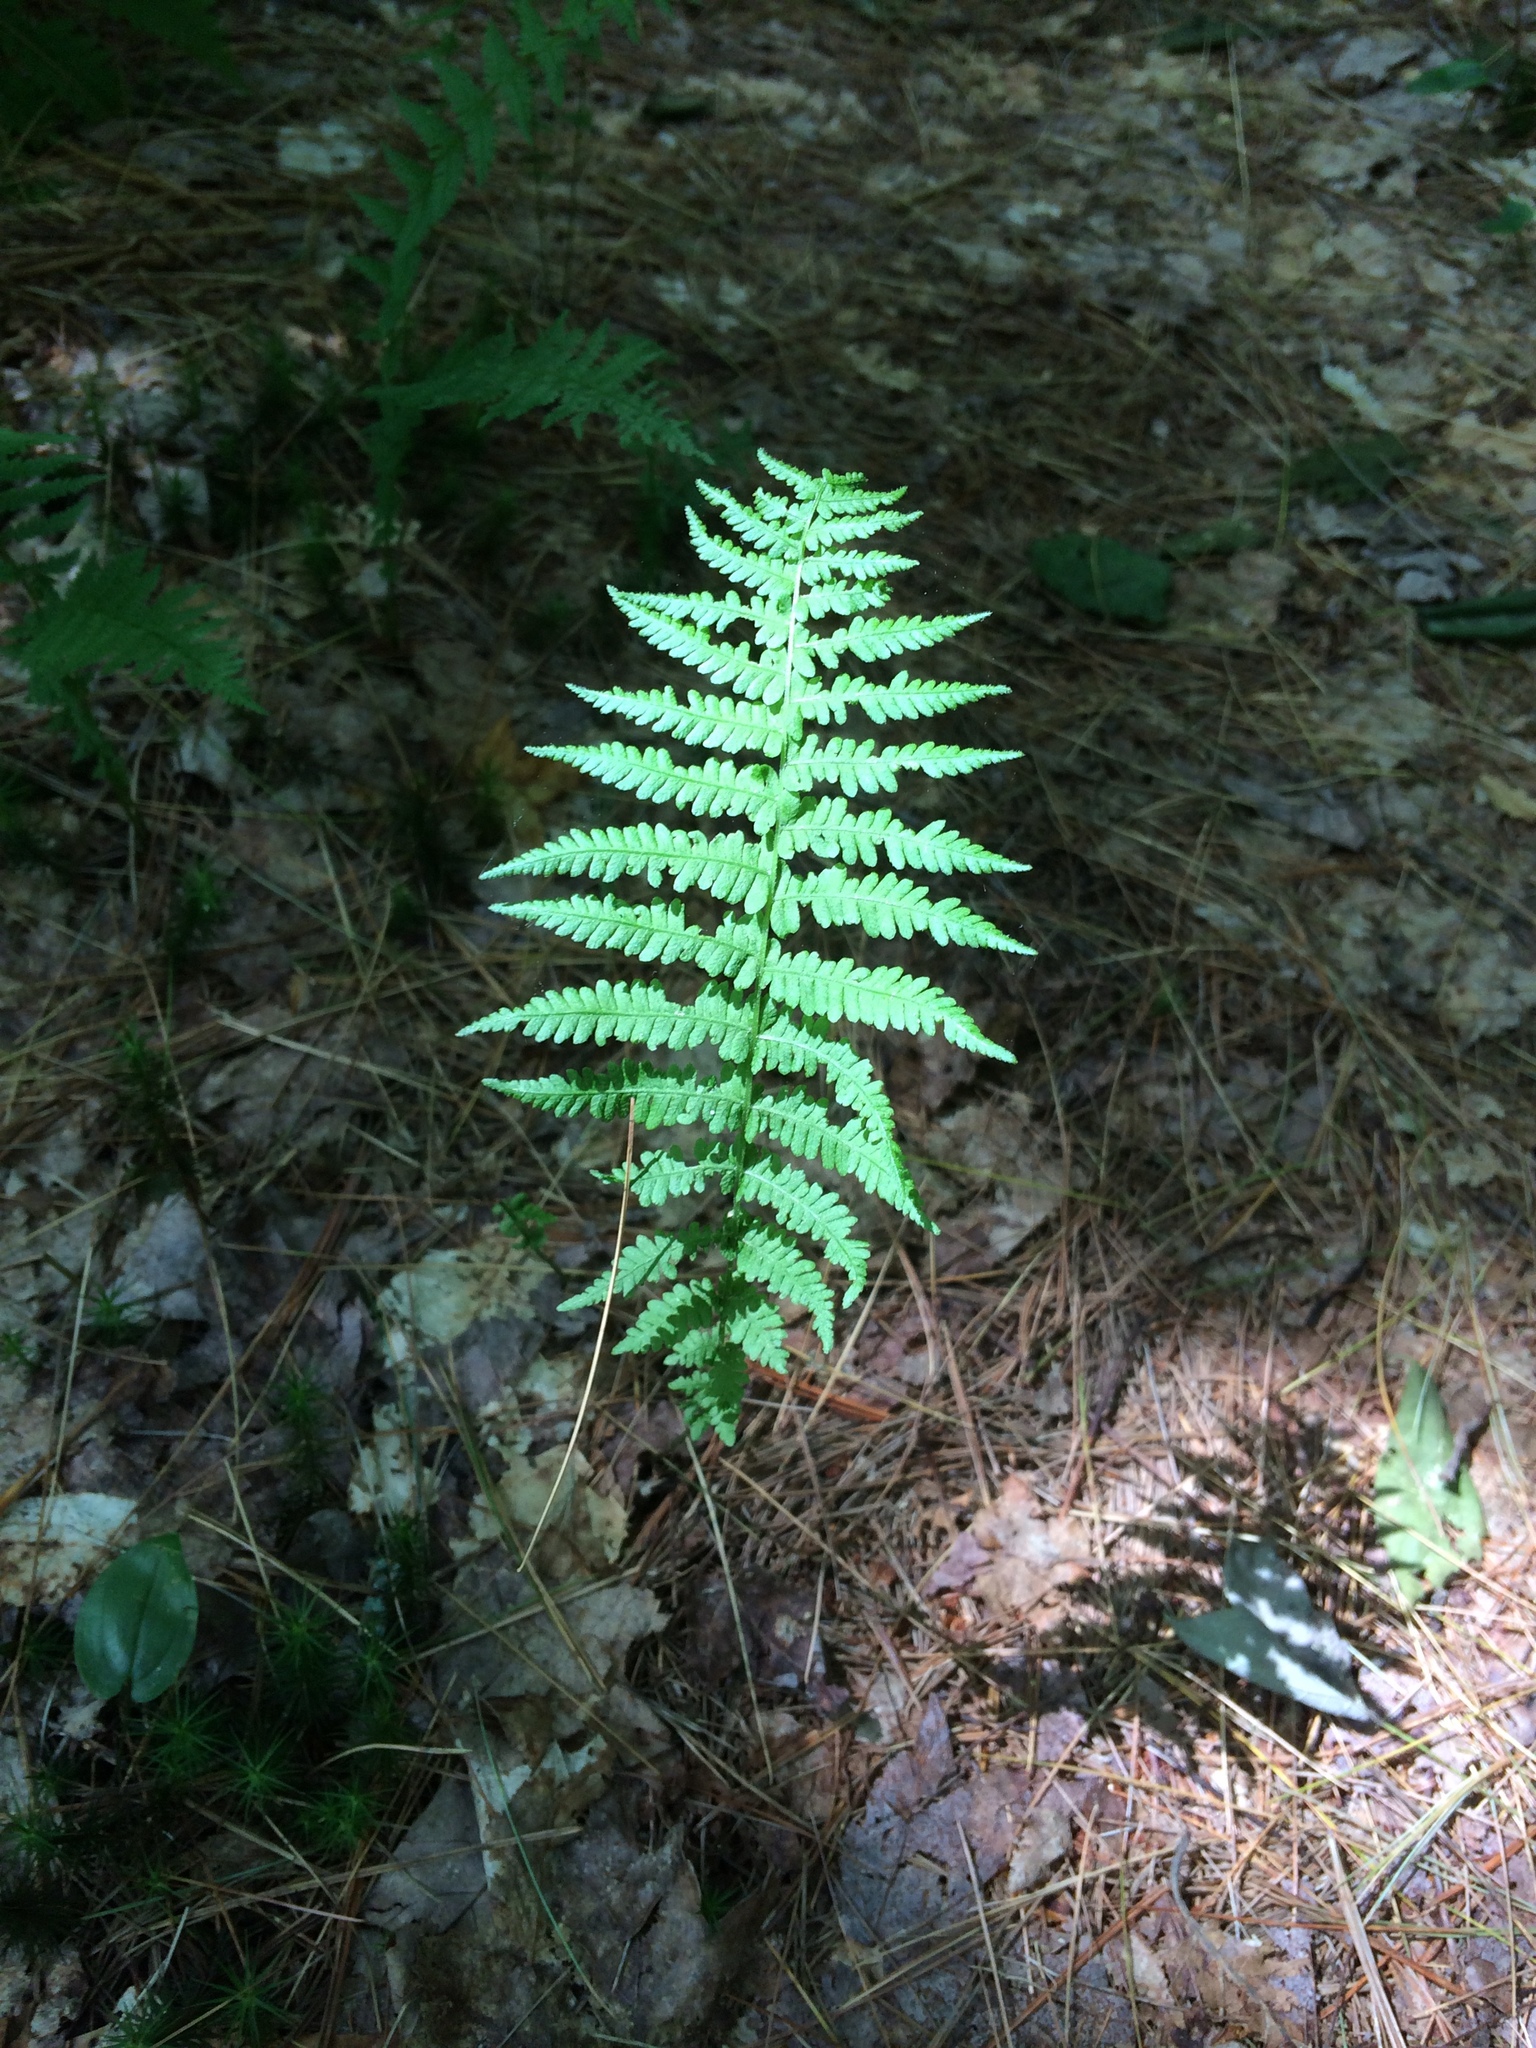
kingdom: Plantae
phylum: Tracheophyta
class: Polypodiopsida
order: Polypodiales
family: Thelypteridaceae
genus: Amauropelta
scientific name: Amauropelta noveboracensis
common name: New york fern
